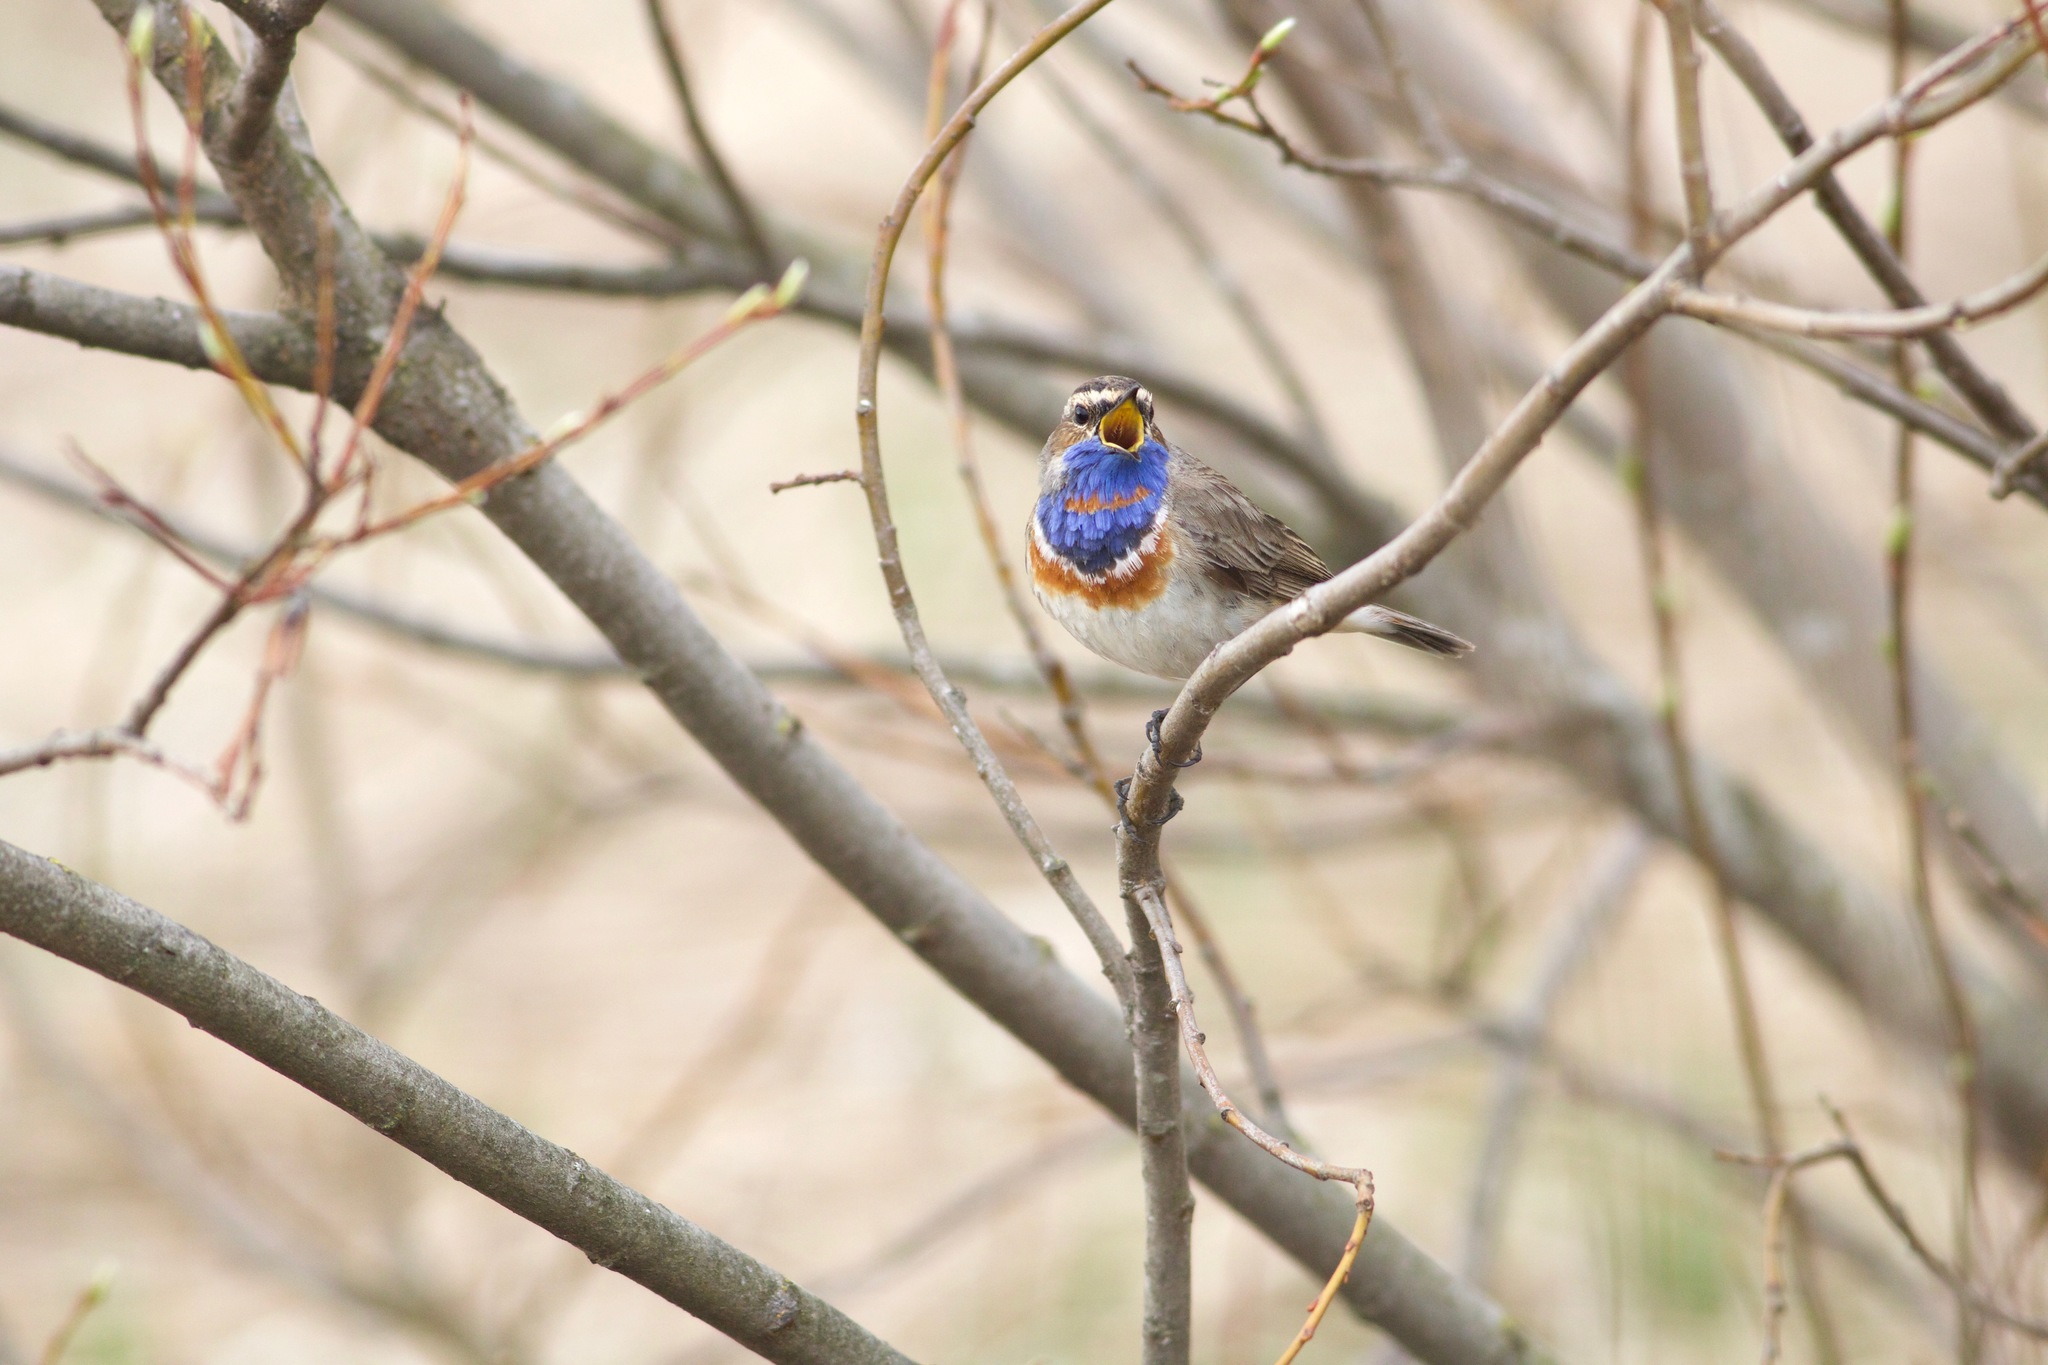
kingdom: Animalia
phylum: Chordata
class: Aves
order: Passeriformes
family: Muscicapidae
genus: Luscinia
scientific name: Luscinia svecica
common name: Bluethroat
